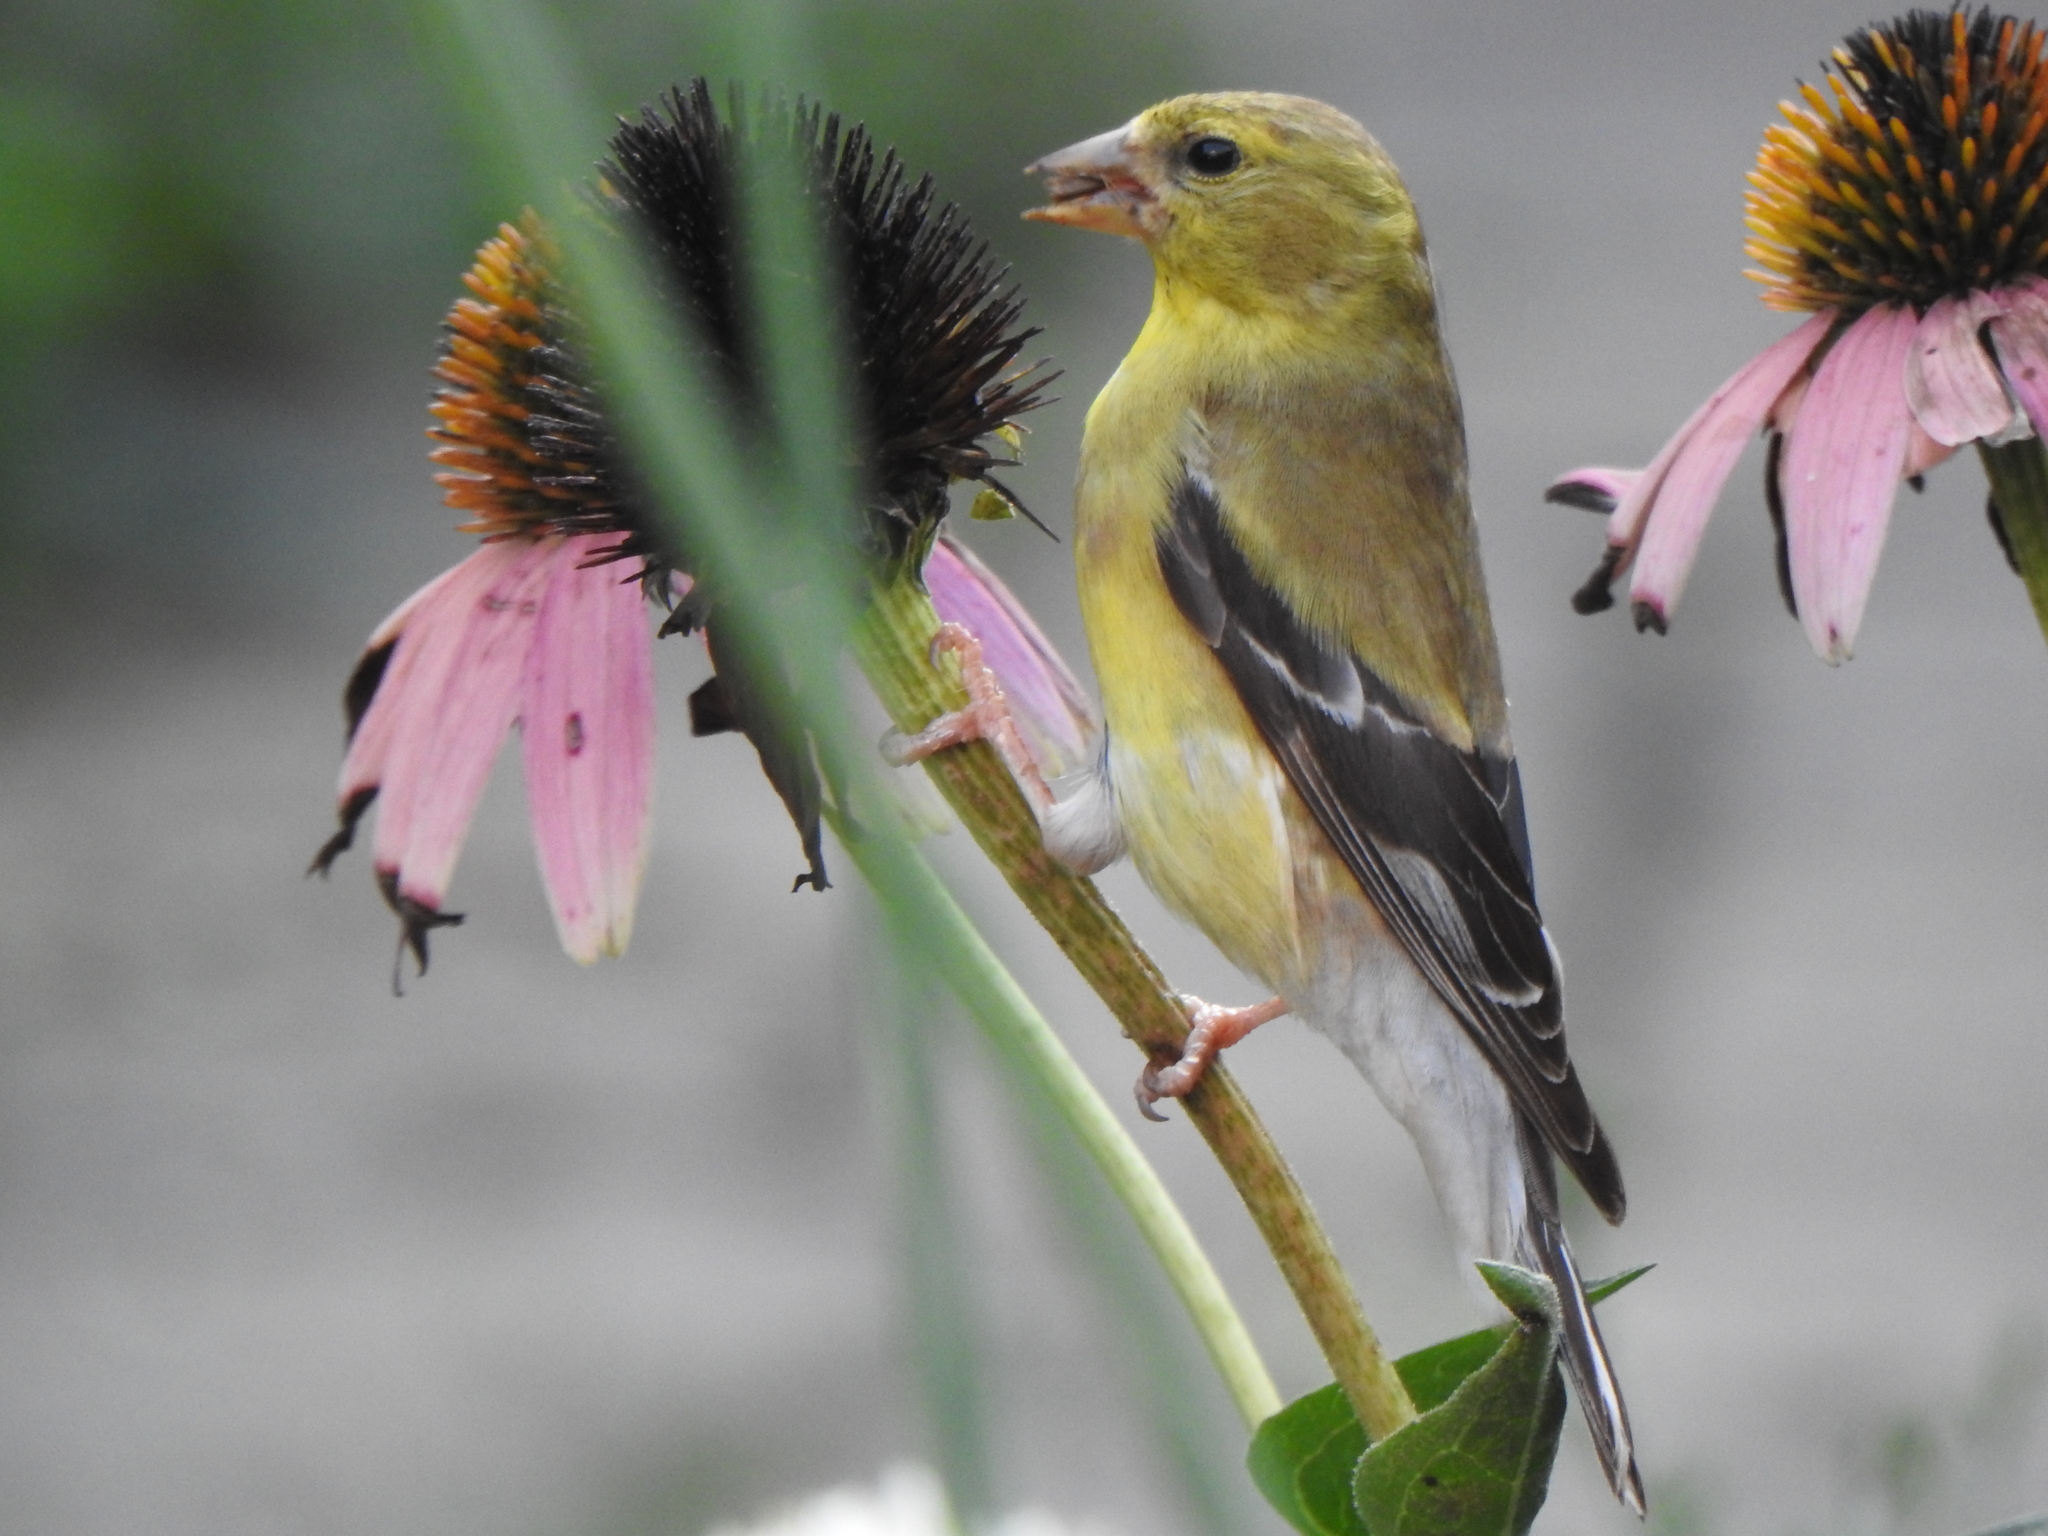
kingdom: Animalia
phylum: Chordata
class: Aves
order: Passeriformes
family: Fringillidae
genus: Spinus
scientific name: Spinus tristis
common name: American goldfinch
